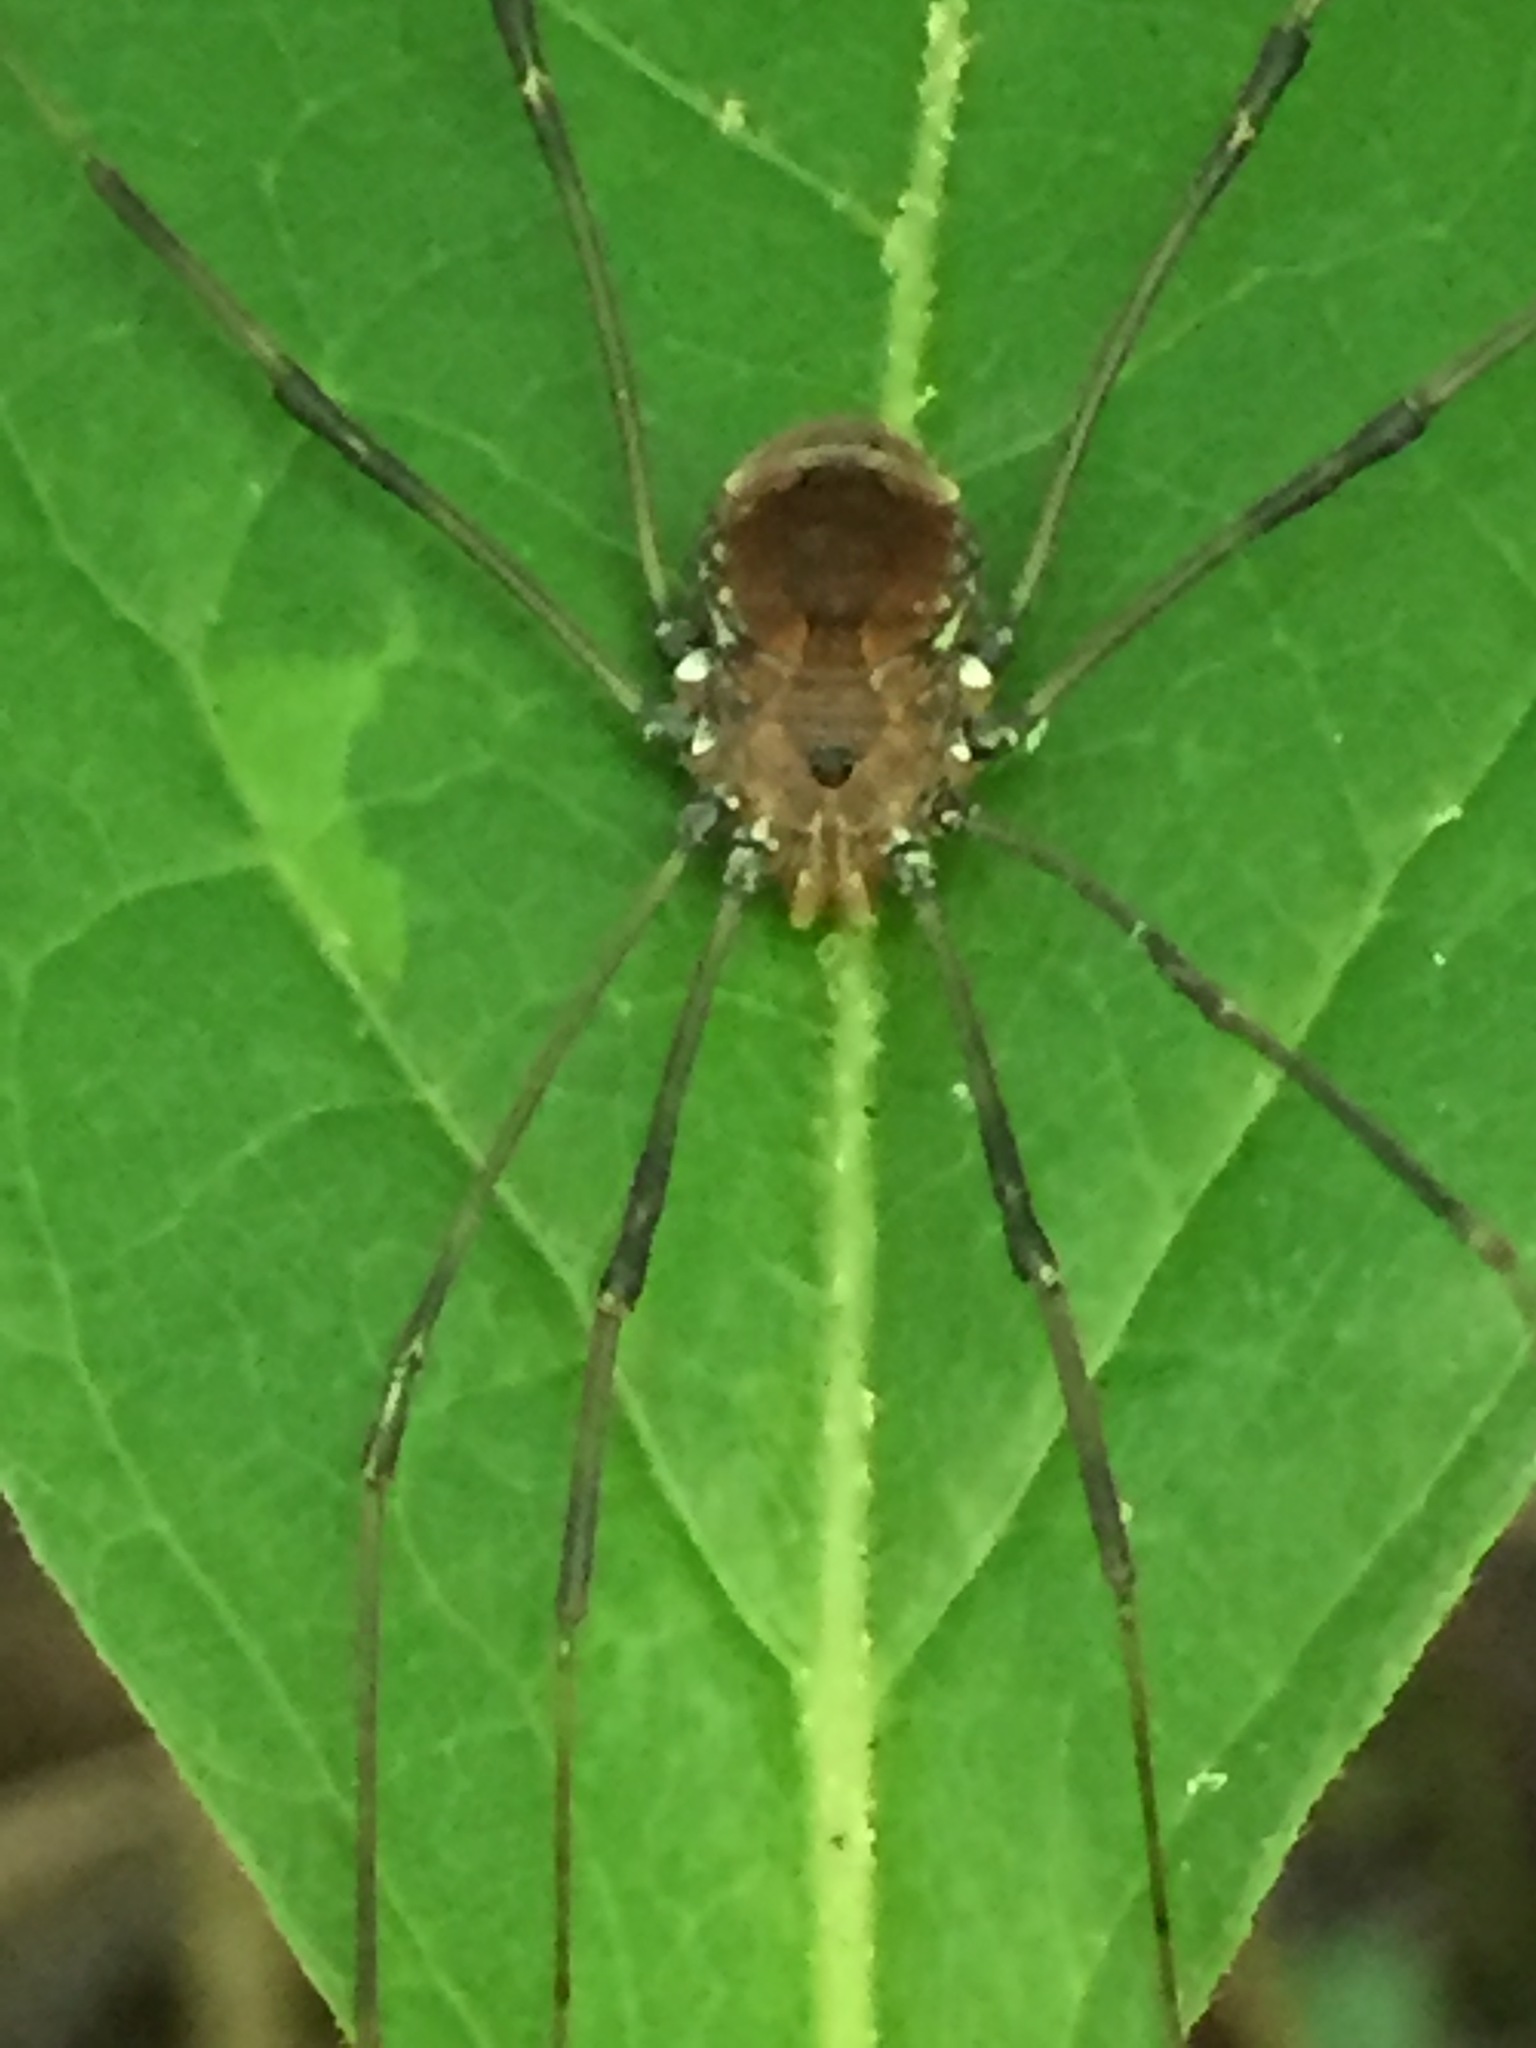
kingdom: Animalia
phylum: Arthropoda
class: Arachnida
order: Opiliones
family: Sclerosomatidae
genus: Leiobunum
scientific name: Leiobunum verrucosum
